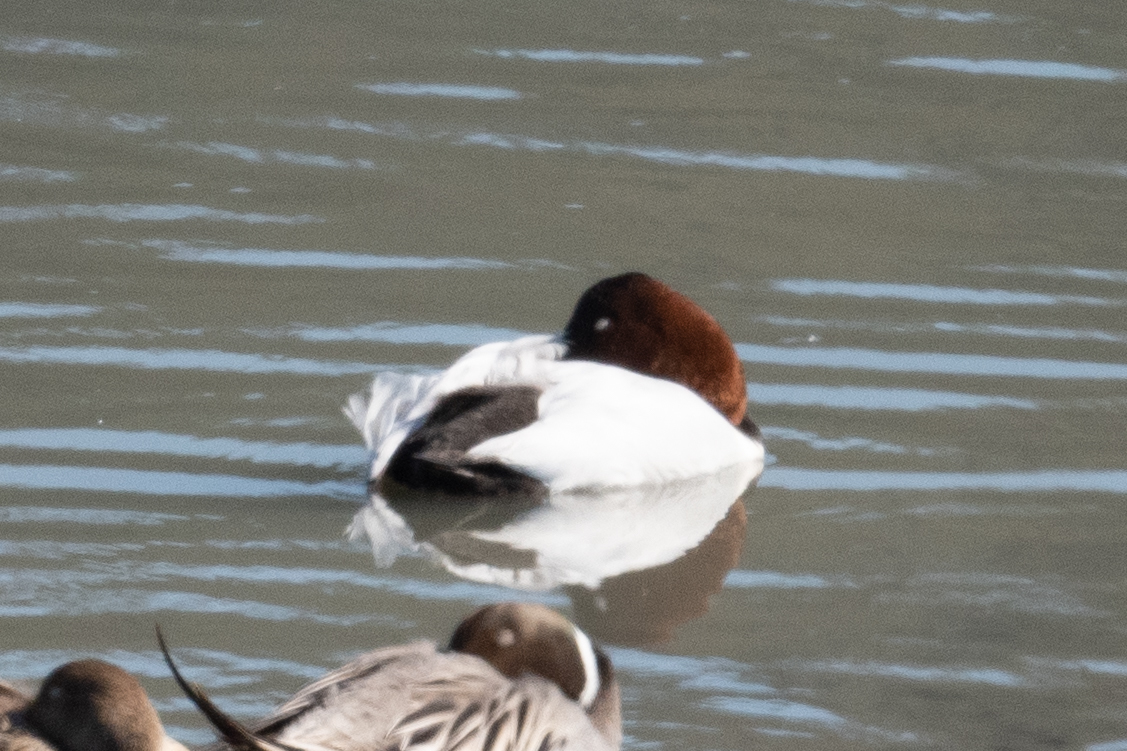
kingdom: Animalia
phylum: Chordata
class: Aves
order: Anseriformes
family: Anatidae
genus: Aythya
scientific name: Aythya valisineria
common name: Canvasback
